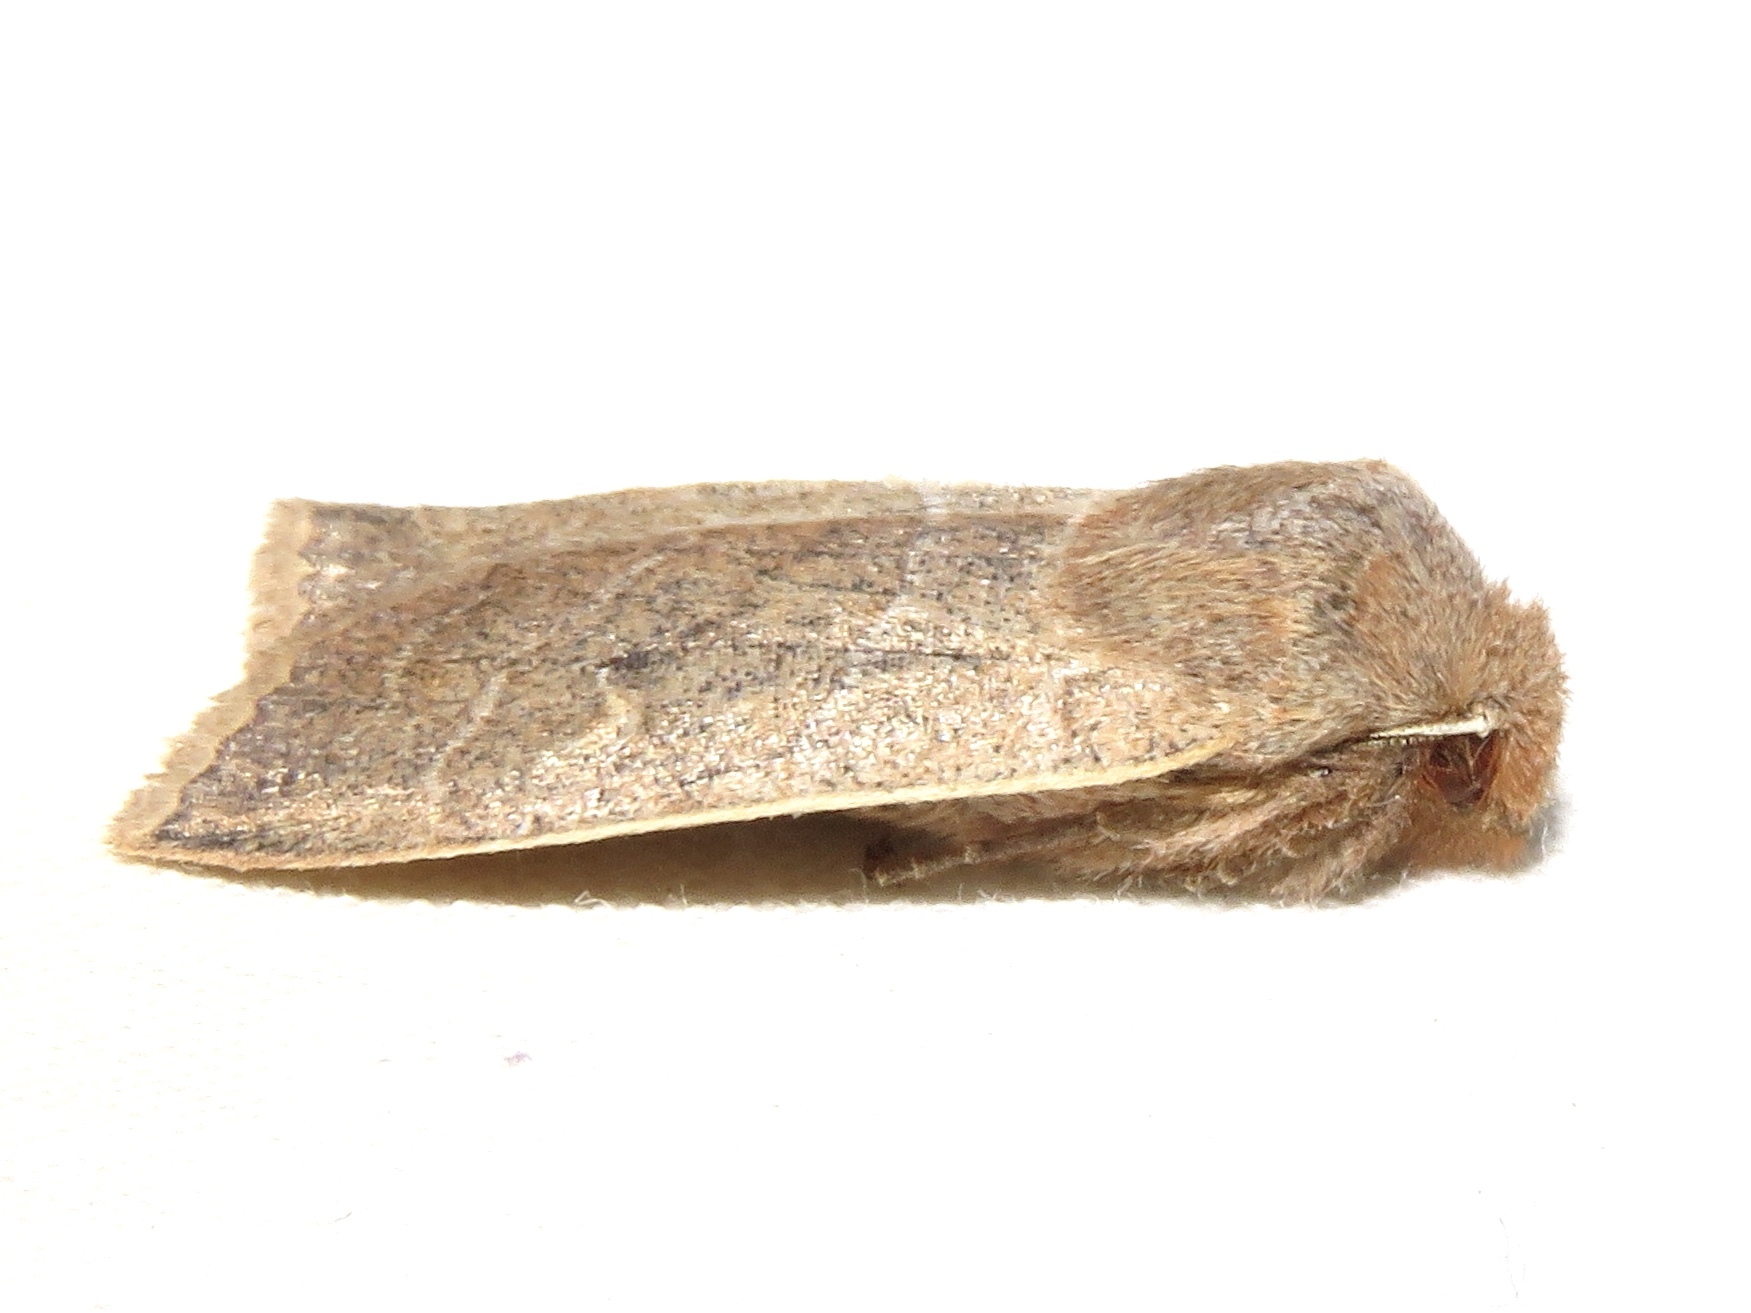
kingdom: Animalia
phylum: Arthropoda
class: Insecta
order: Lepidoptera
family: Noctuidae
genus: Eupsilia
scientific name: Eupsilia morrisoni
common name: Morrison's sallow
